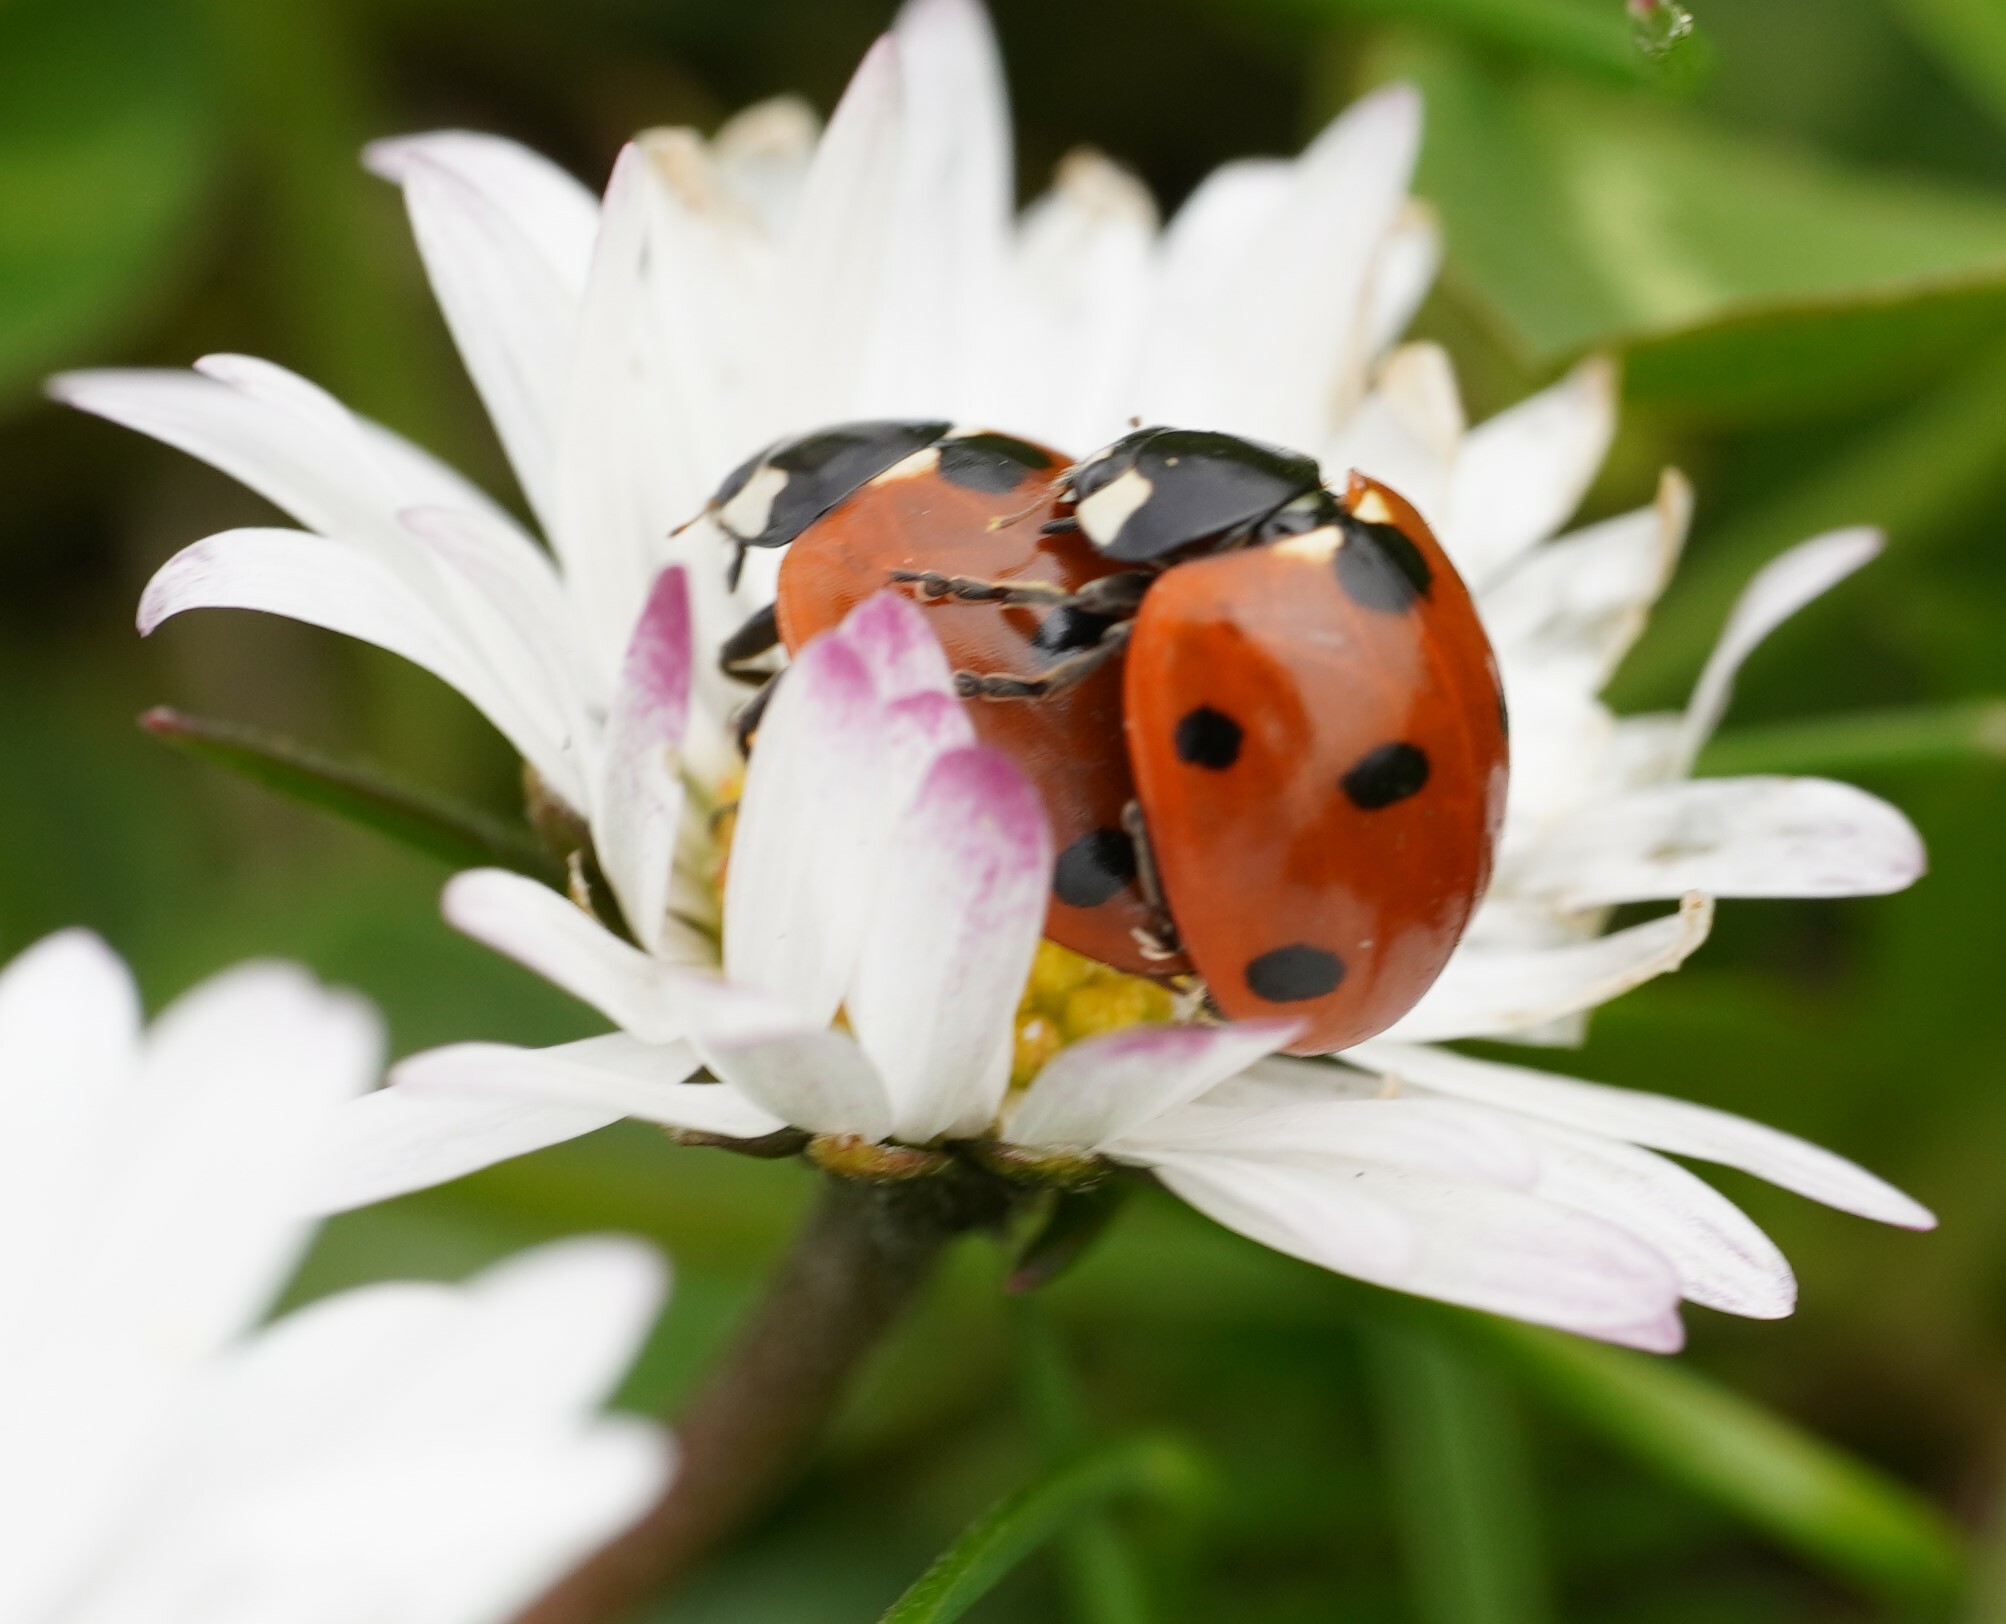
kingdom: Animalia
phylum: Arthropoda
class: Insecta
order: Coleoptera
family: Coccinellidae
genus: Coccinella
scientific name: Coccinella septempunctata
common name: Sevenspotted lady beetle
